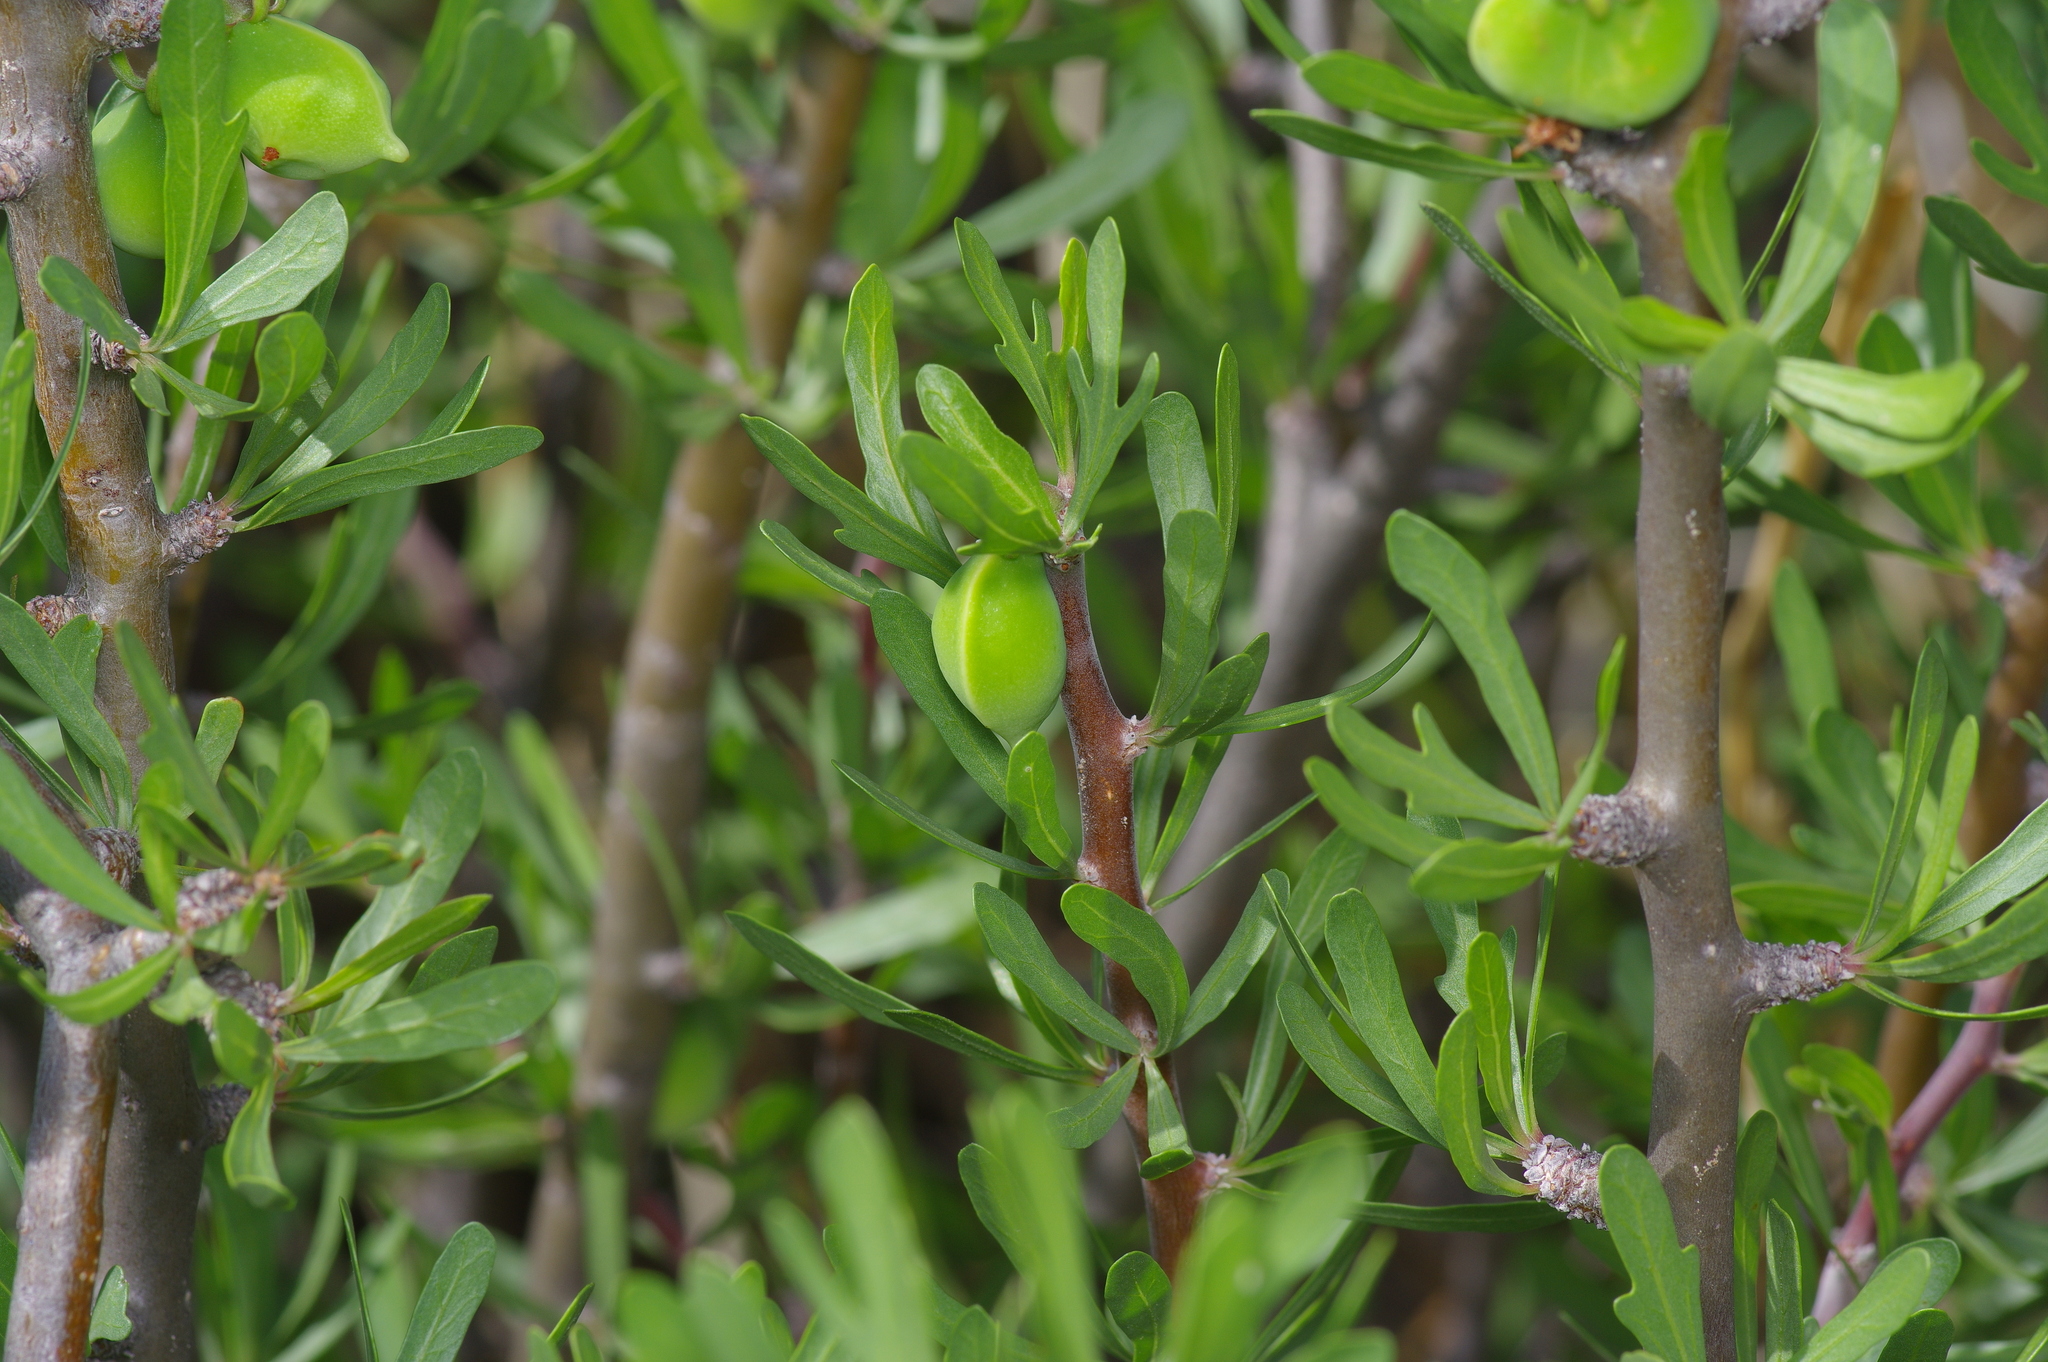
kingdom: Plantae
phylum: Tracheophyta
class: Magnoliopsida
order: Malpighiales
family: Euphorbiaceae
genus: Jatropha
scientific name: Jatropha dioica
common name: Leatherstem
